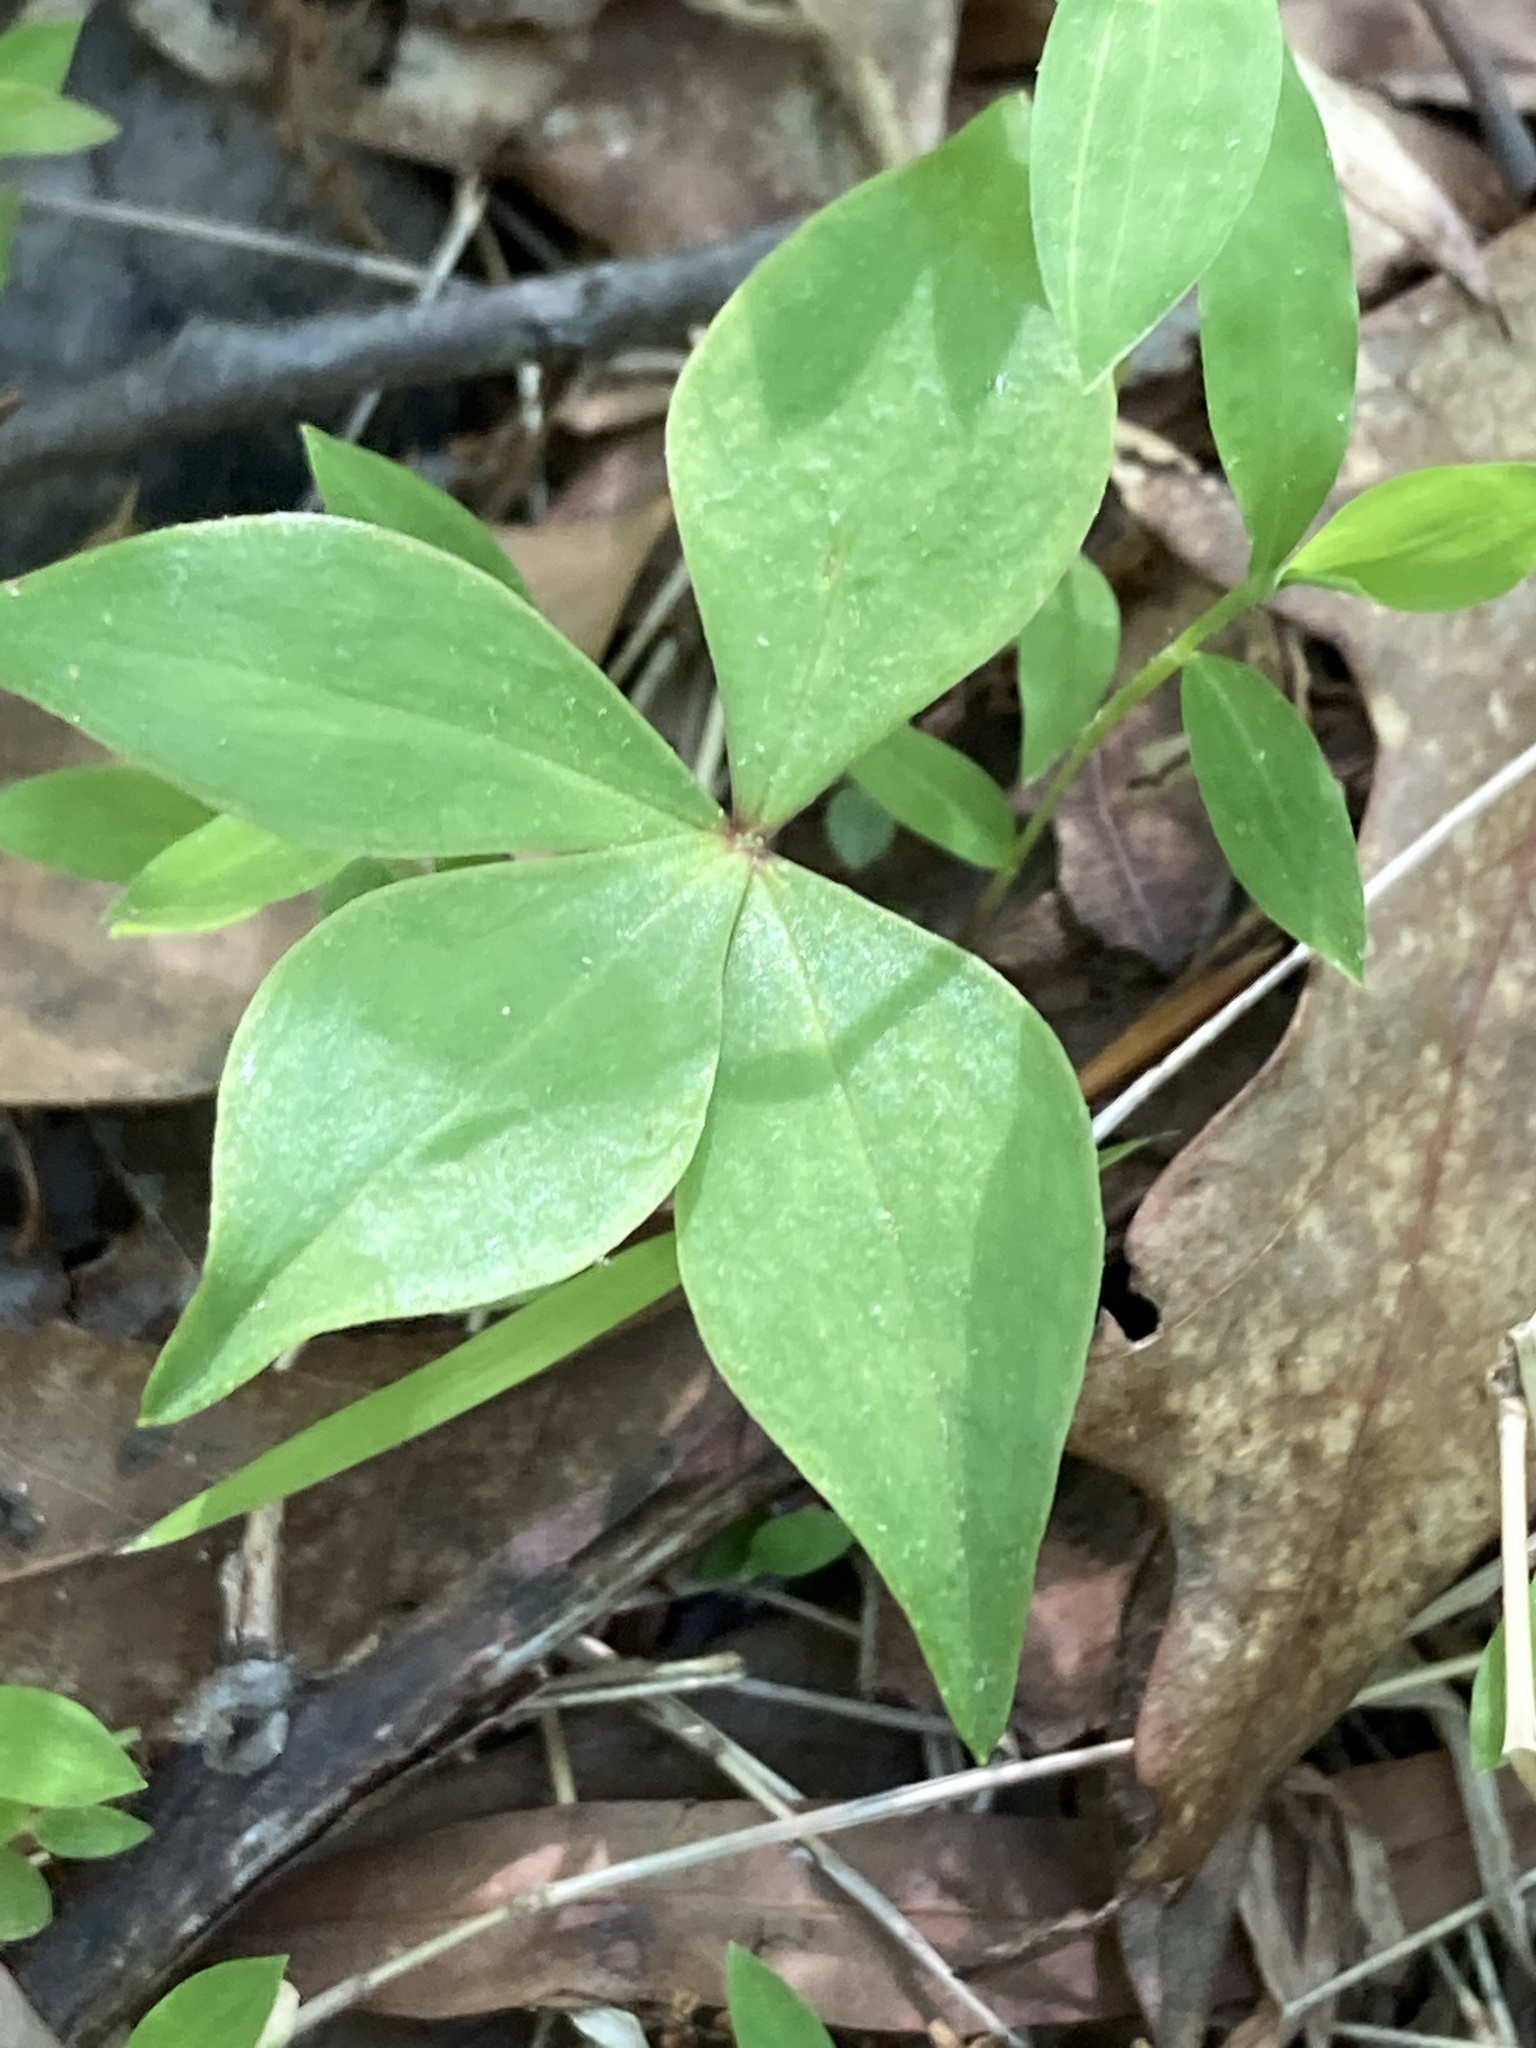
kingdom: Plantae
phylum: Tracheophyta
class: Liliopsida
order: Liliales
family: Liliaceae
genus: Medeola
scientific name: Medeola virginiana
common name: Indian cucumber-root
